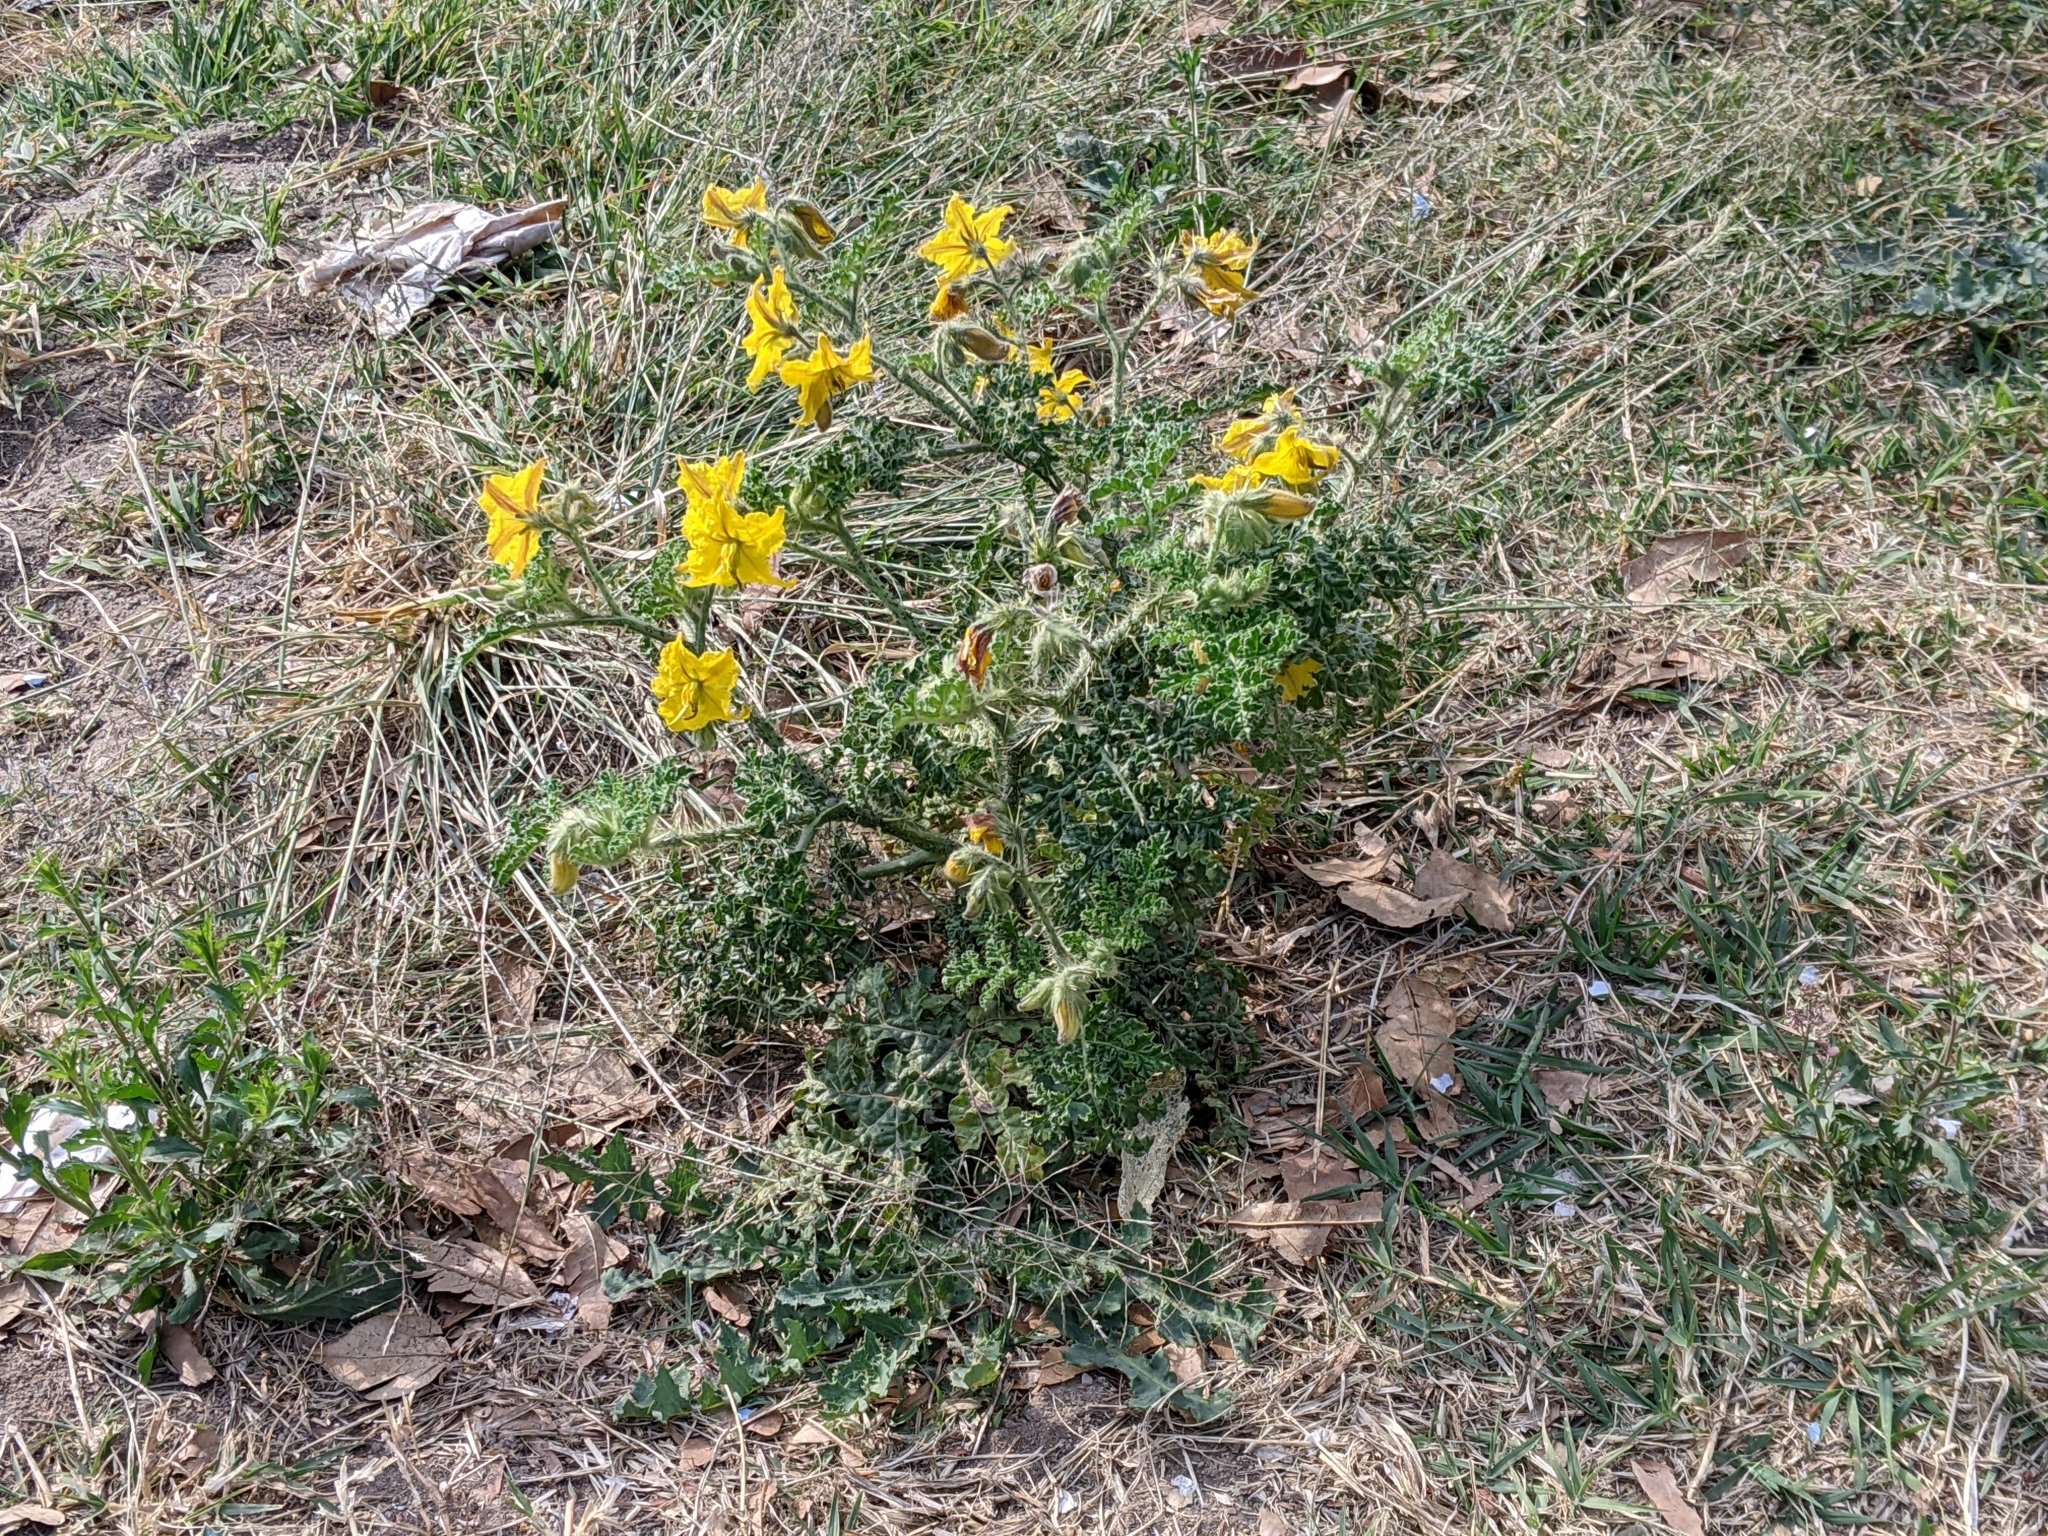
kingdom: Plantae
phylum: Tracheophyta
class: Magnoliopsida
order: Solanales
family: Solanaceae
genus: Solanum
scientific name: Solanum angustifolium
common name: Buffalobur nightshade
